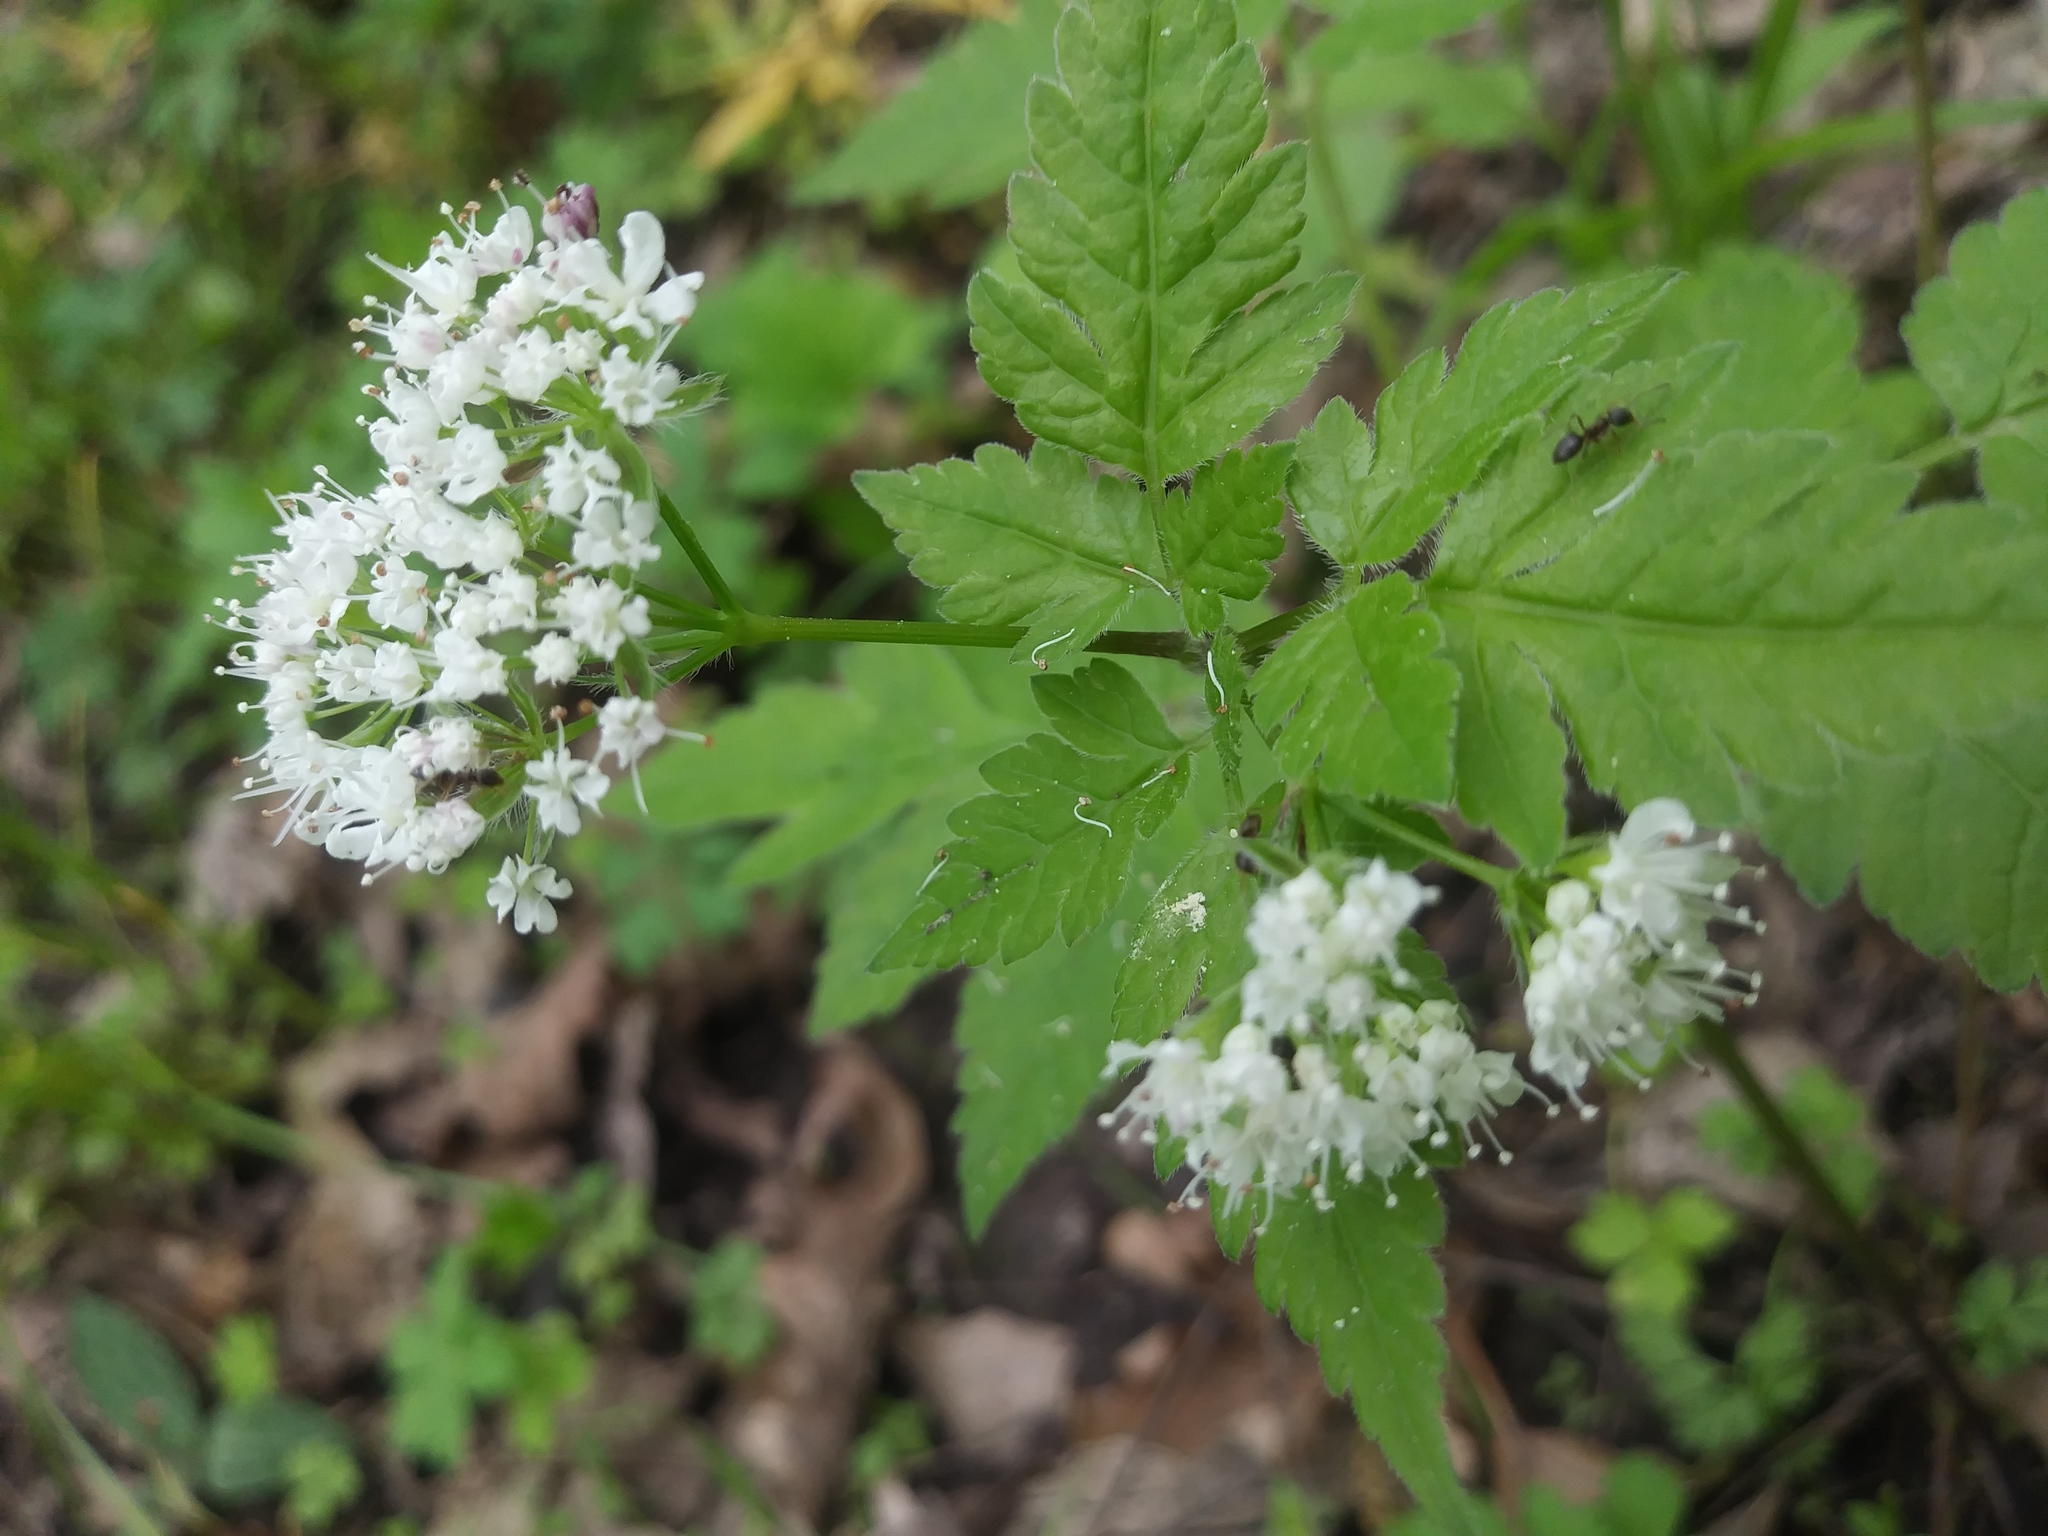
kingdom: Plantae
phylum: Tracheophyta
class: Magnoliopsida
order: Apiales
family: Apiaceae
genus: Osmorhiza
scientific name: Osmorhiza longistylis
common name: Smooth sweet cicely
